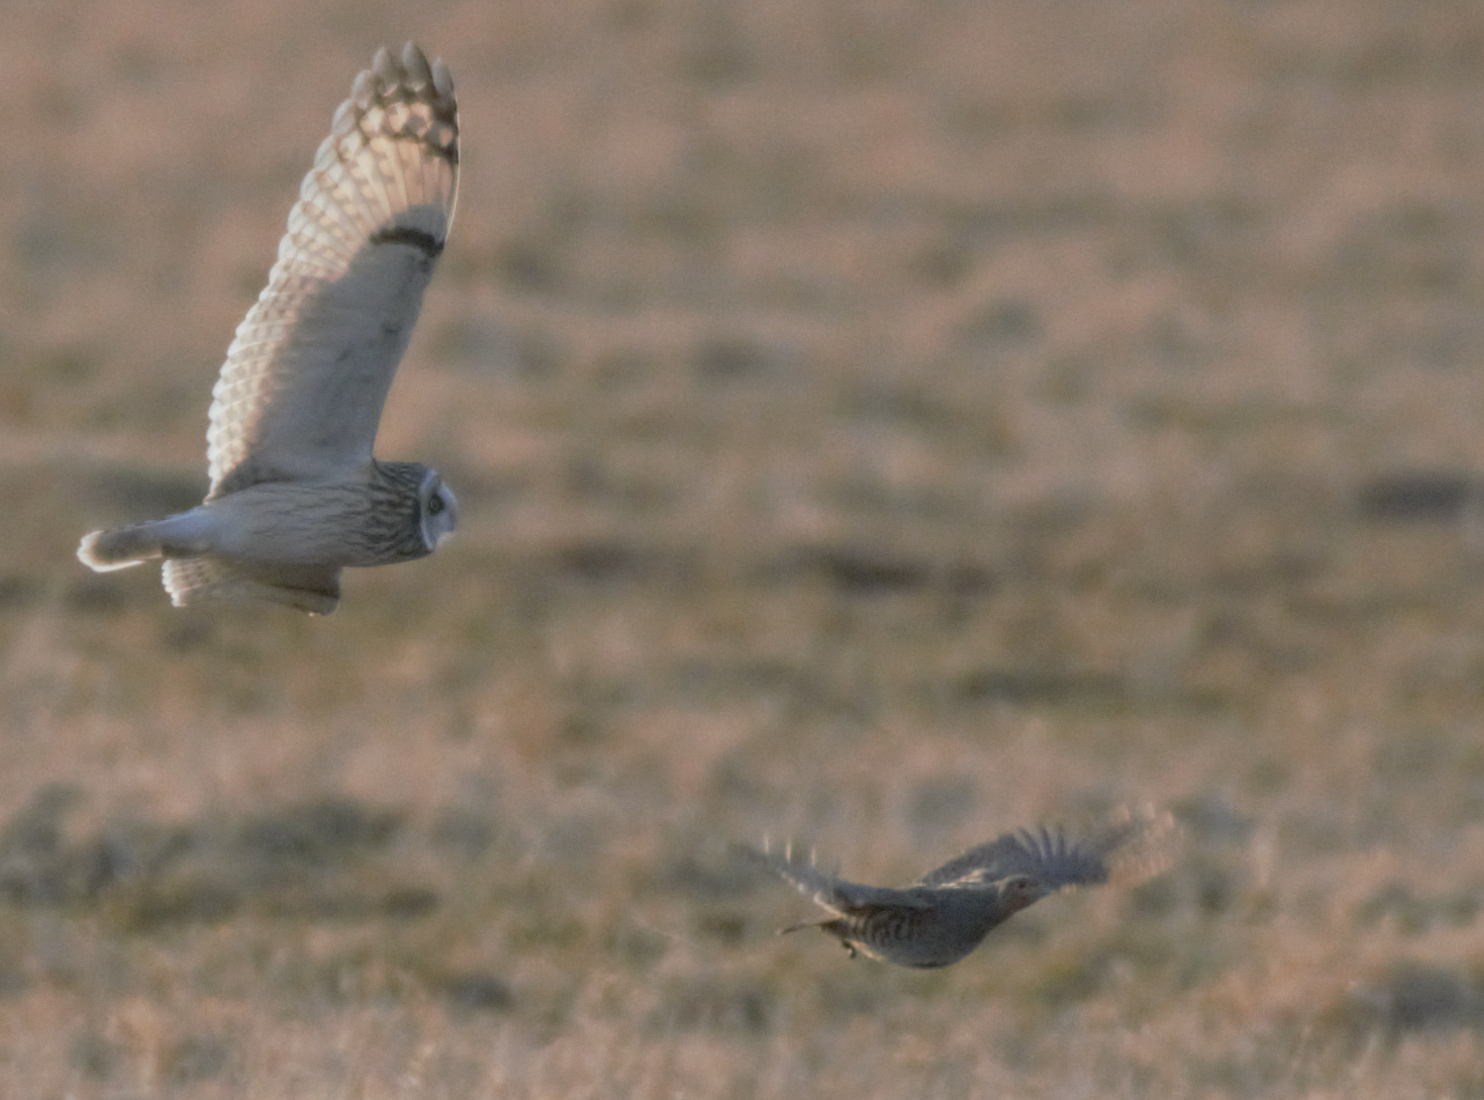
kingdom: Animalia
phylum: Chordata
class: Aves
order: Strigiformes
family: Strigidae
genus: Asio
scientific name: Asio flammeus
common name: Short-eared owl
